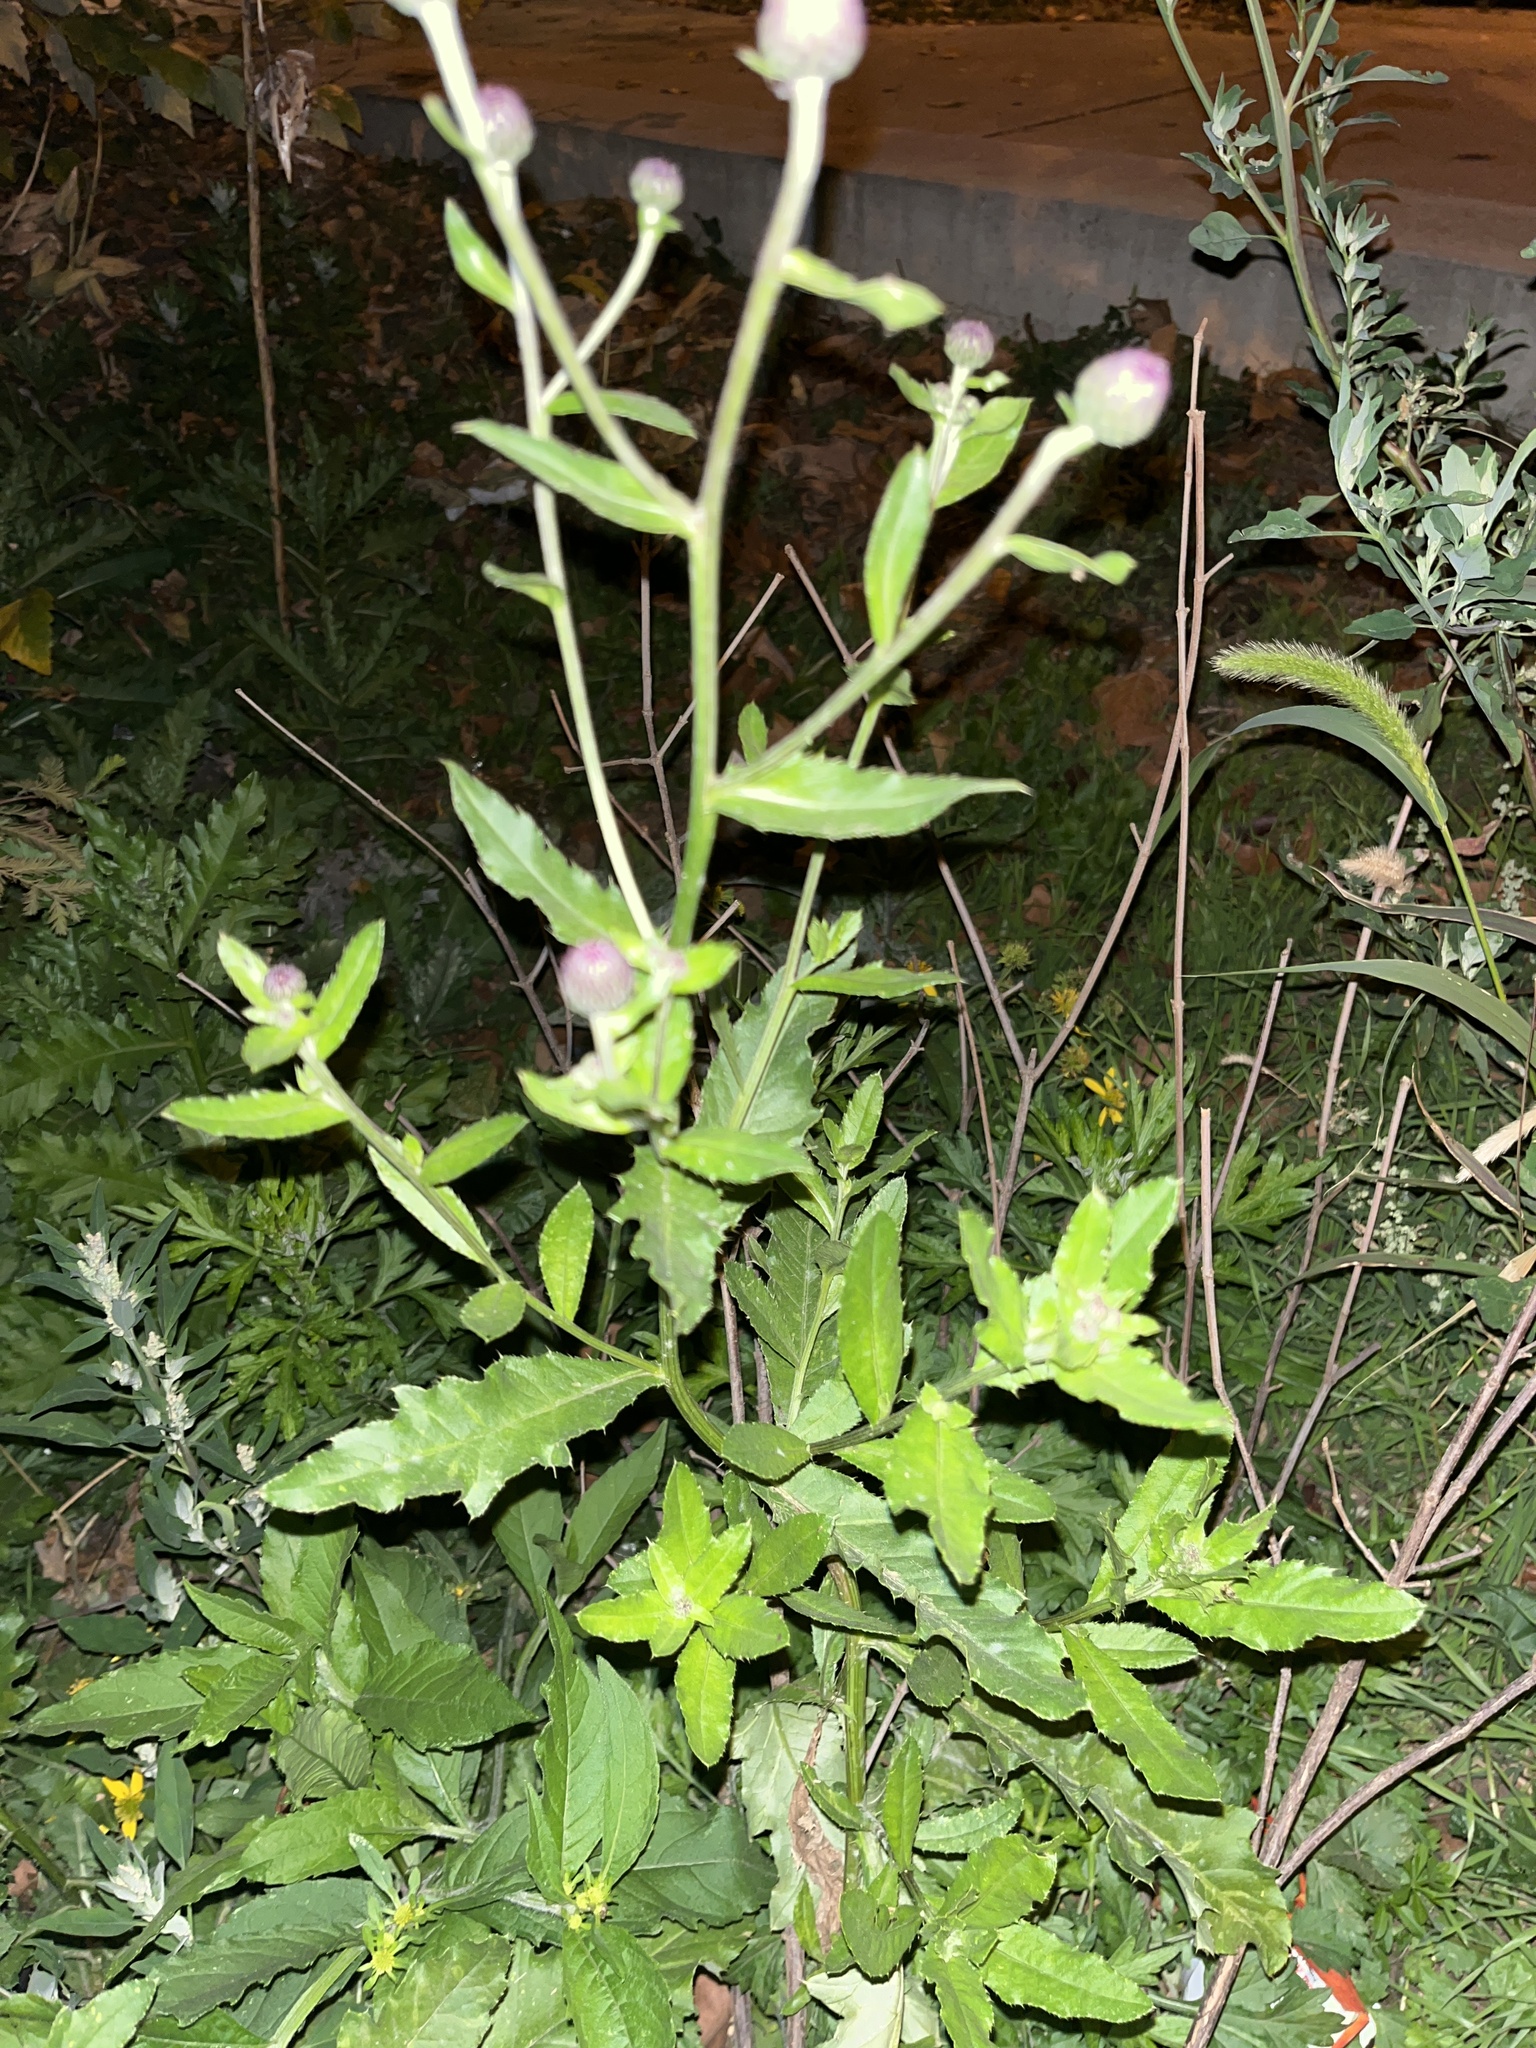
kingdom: Plantae
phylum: Tracheophyta
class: Magnoliopsida
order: Asterales
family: Asteraceae
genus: Cirsium
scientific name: Cirsium arvense
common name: Creeping thistle
